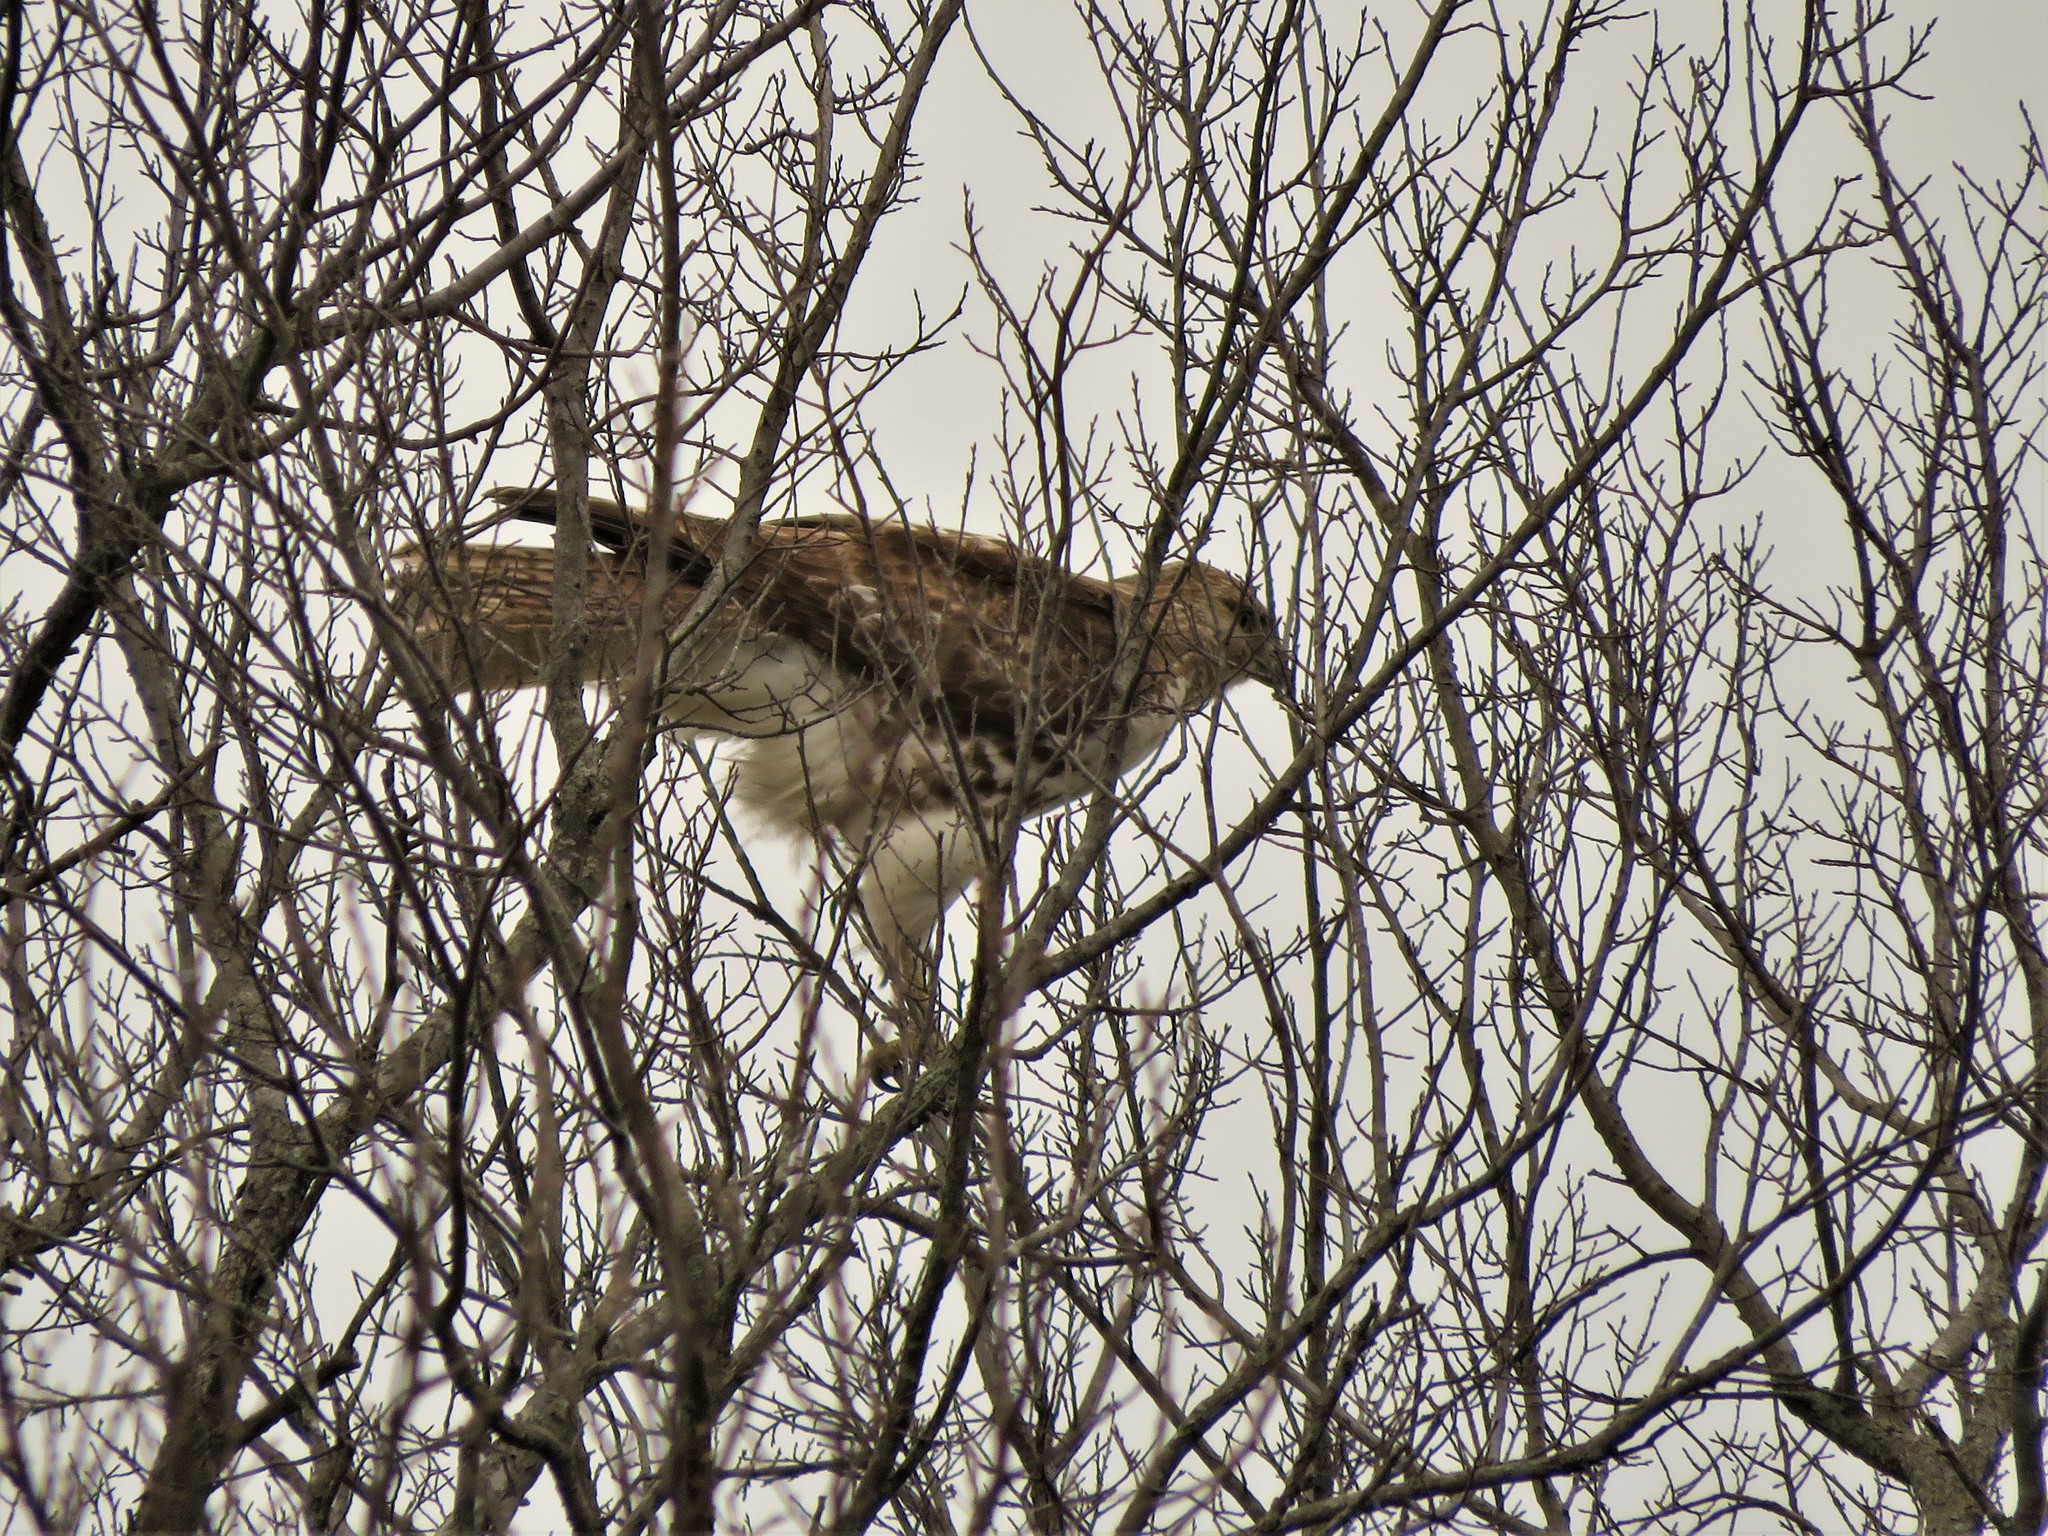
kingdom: Animalia
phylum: Chordata
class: Aves
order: Accipitriformes
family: Accipitridae
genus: Buteo
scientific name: Buteo jamaicensis
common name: Red-tailed hawk
